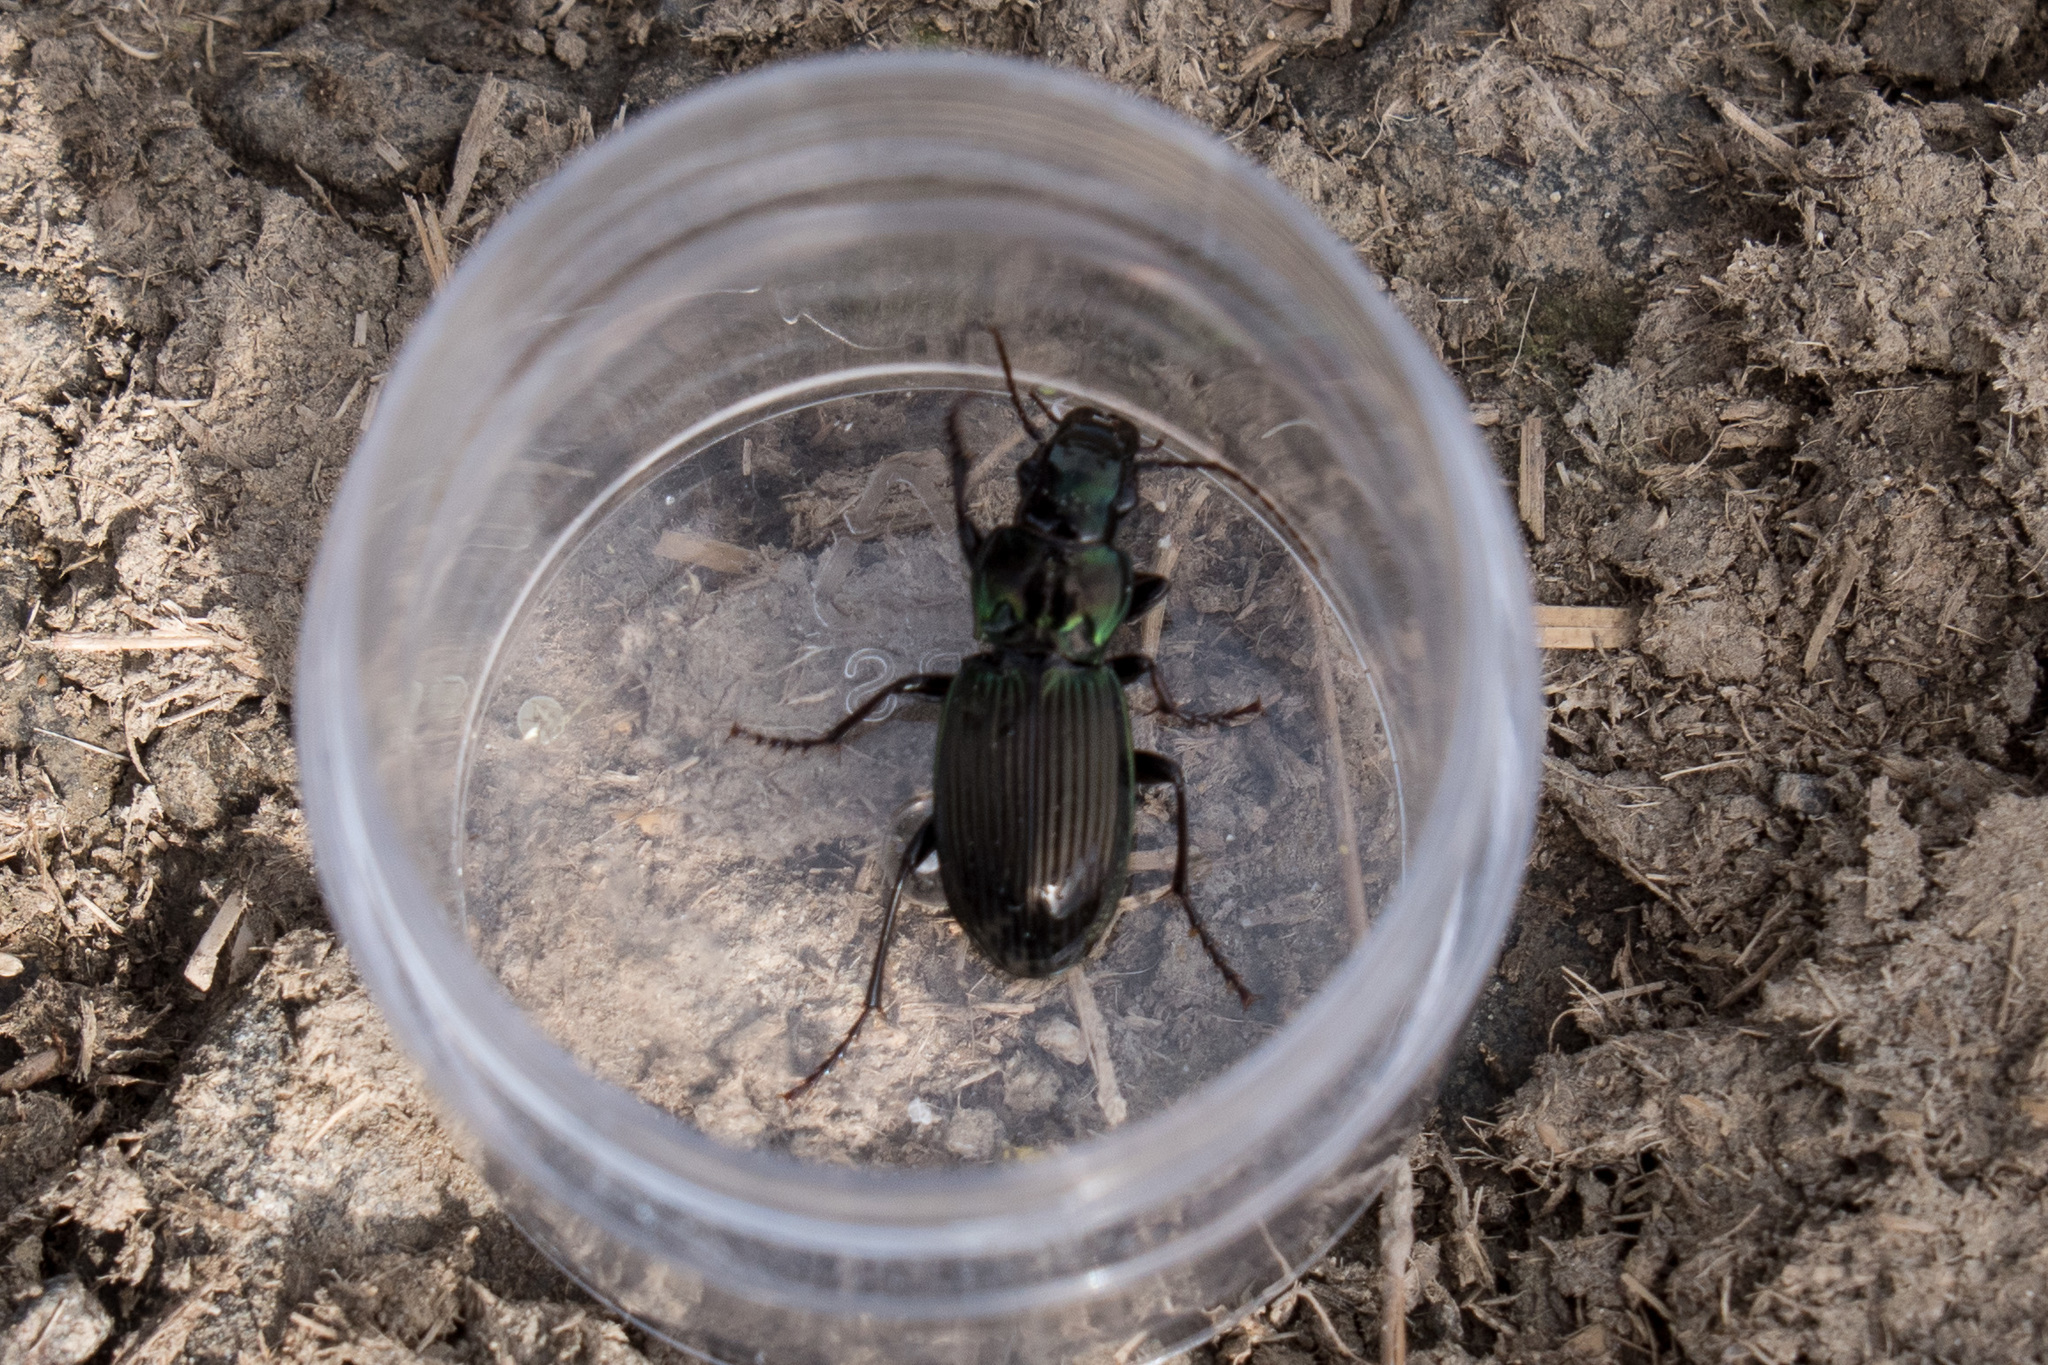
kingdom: Animalia
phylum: Arthropoda
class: Insecta
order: Coleoptera
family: Carabidae
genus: Megadromus
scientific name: Megadromus capito
